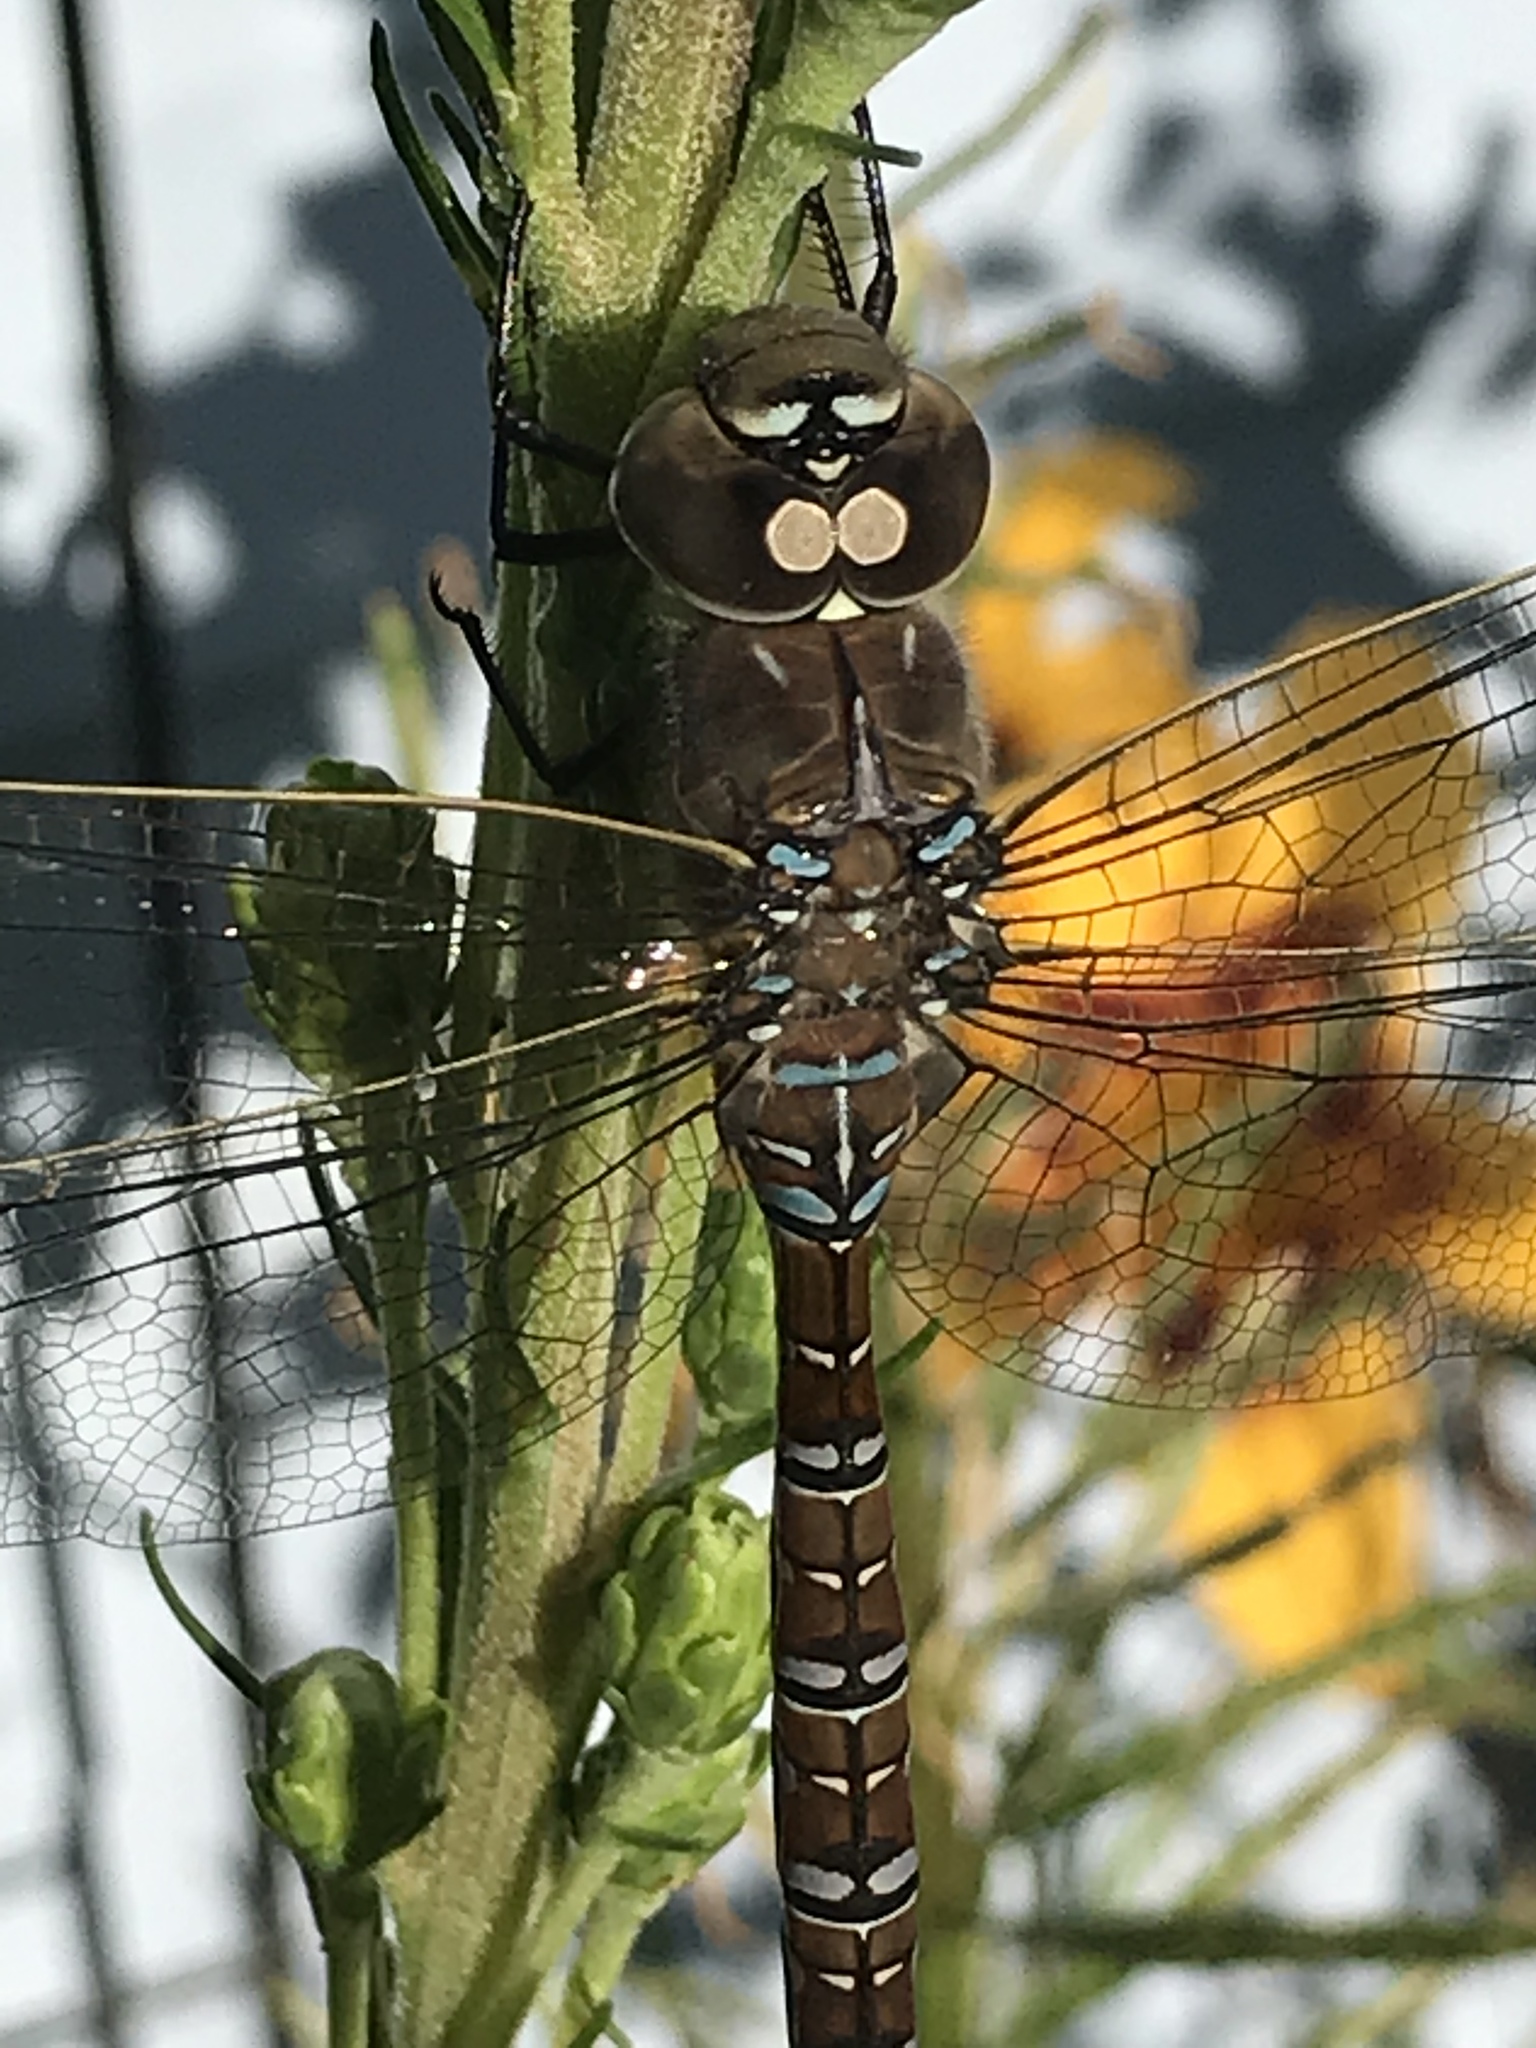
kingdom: Animalia
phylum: Arthropoda
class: Insecta
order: Odonata
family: Aeshnidae
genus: Aeshna
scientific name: Aeshna interrupta
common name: Variable darner
